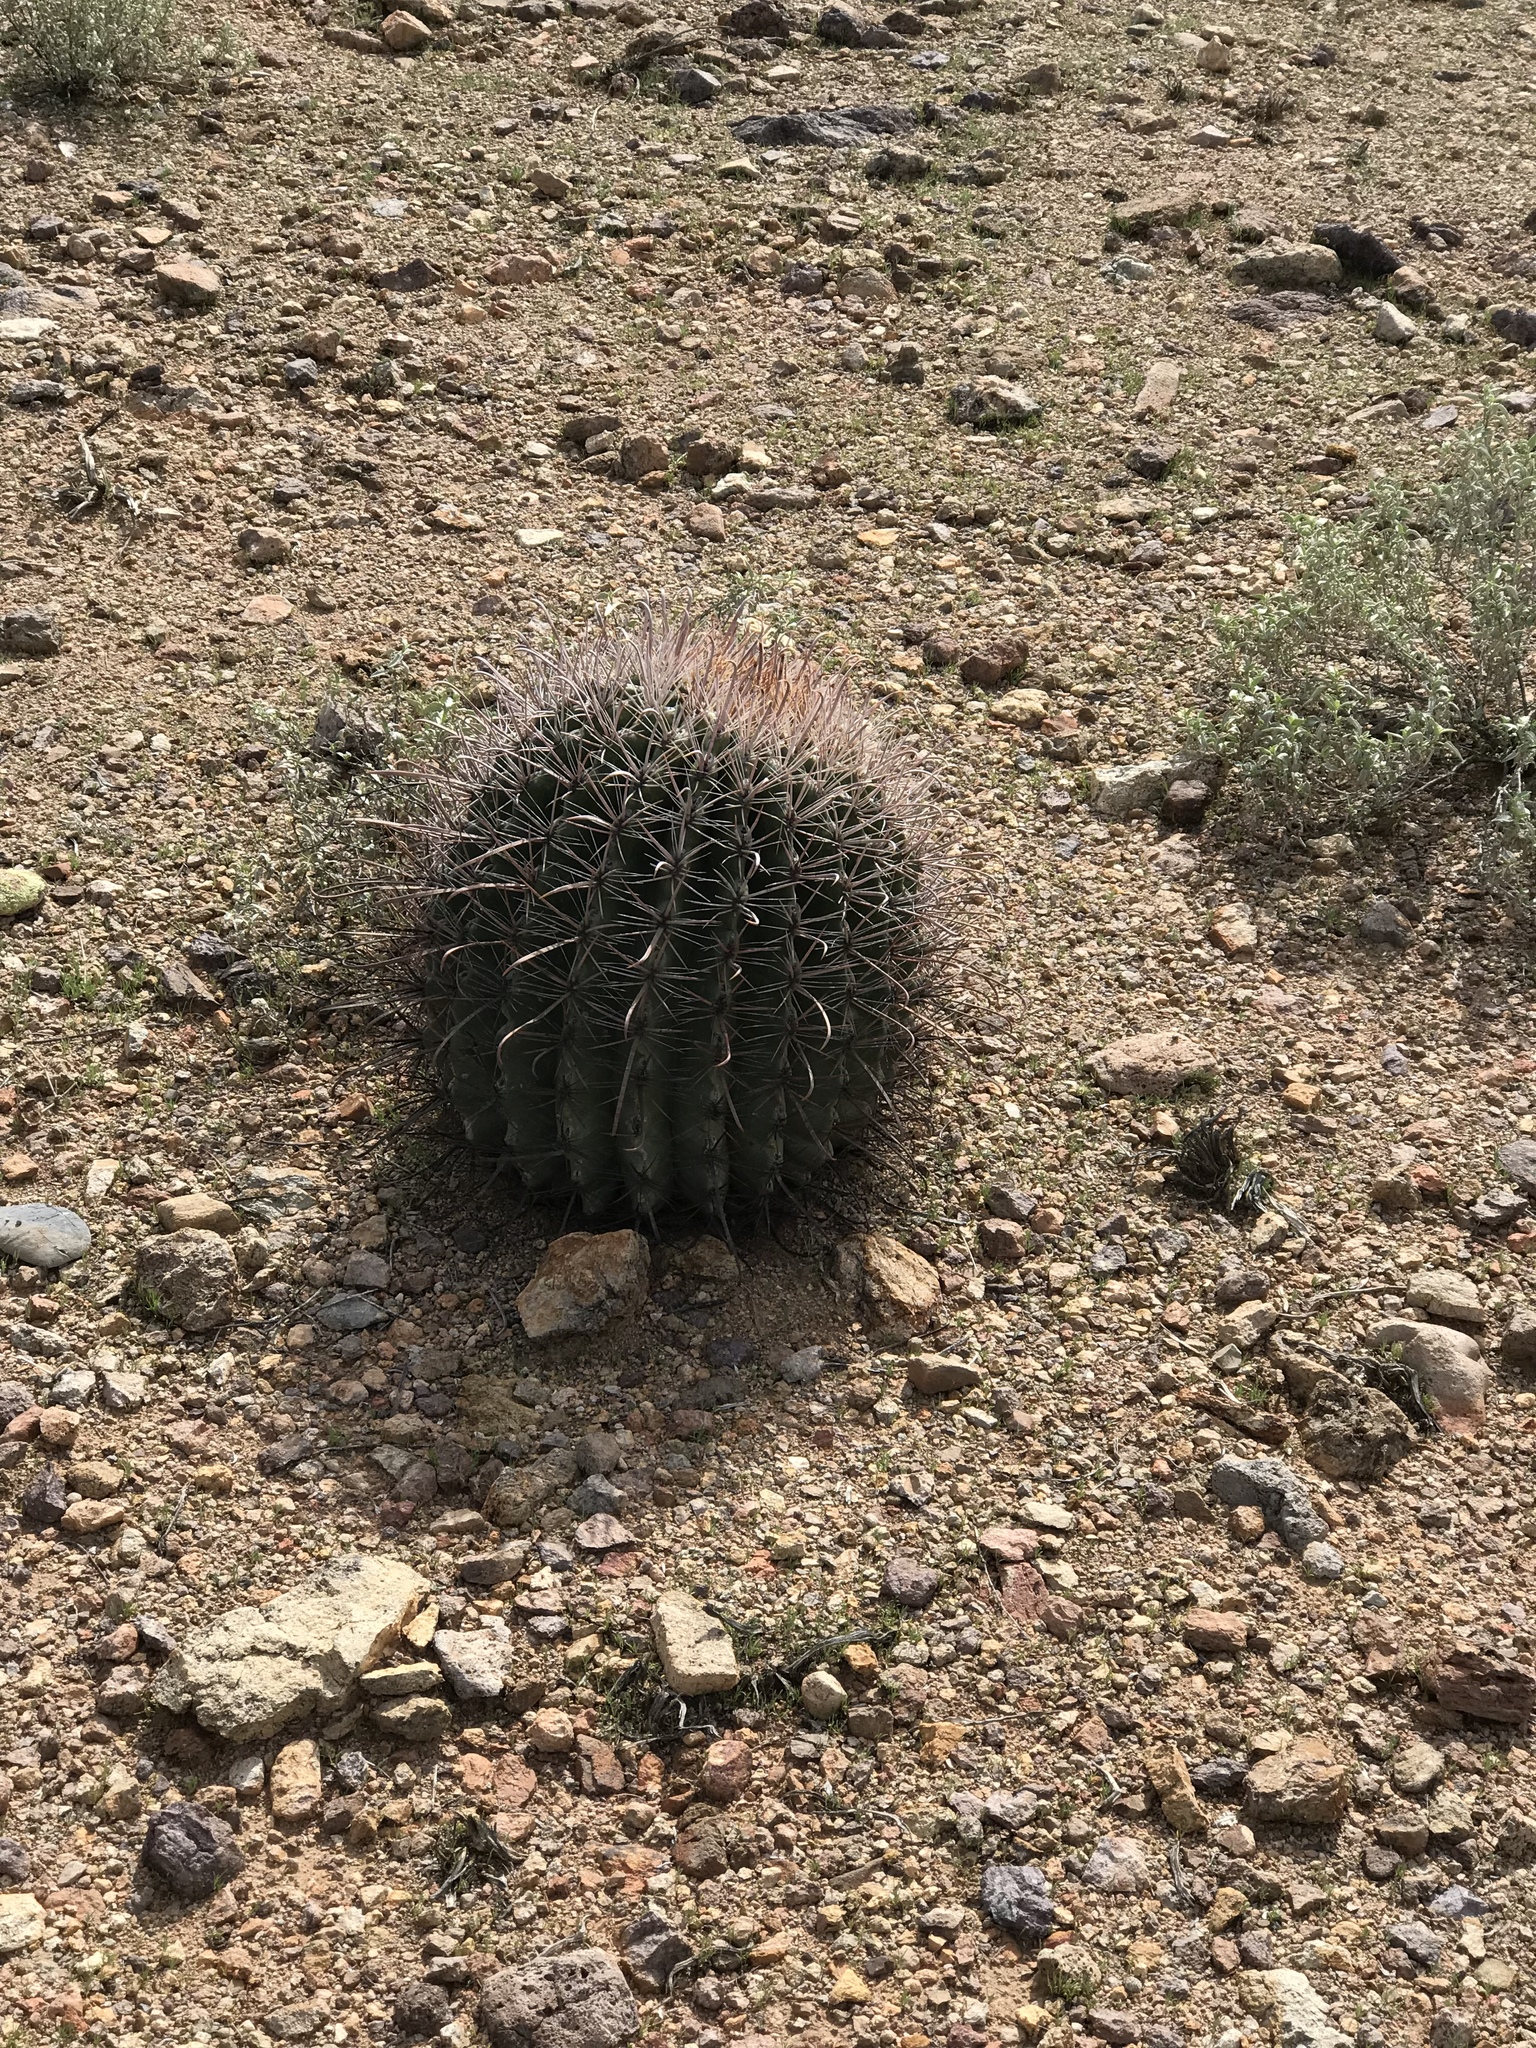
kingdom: Plantae
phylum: Tracheophyta
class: Magnoliopsida
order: Caryophyllales
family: Cactaceae
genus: Ferocactus
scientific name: Ferocactus wislizeni
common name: Candy barrel cactus
